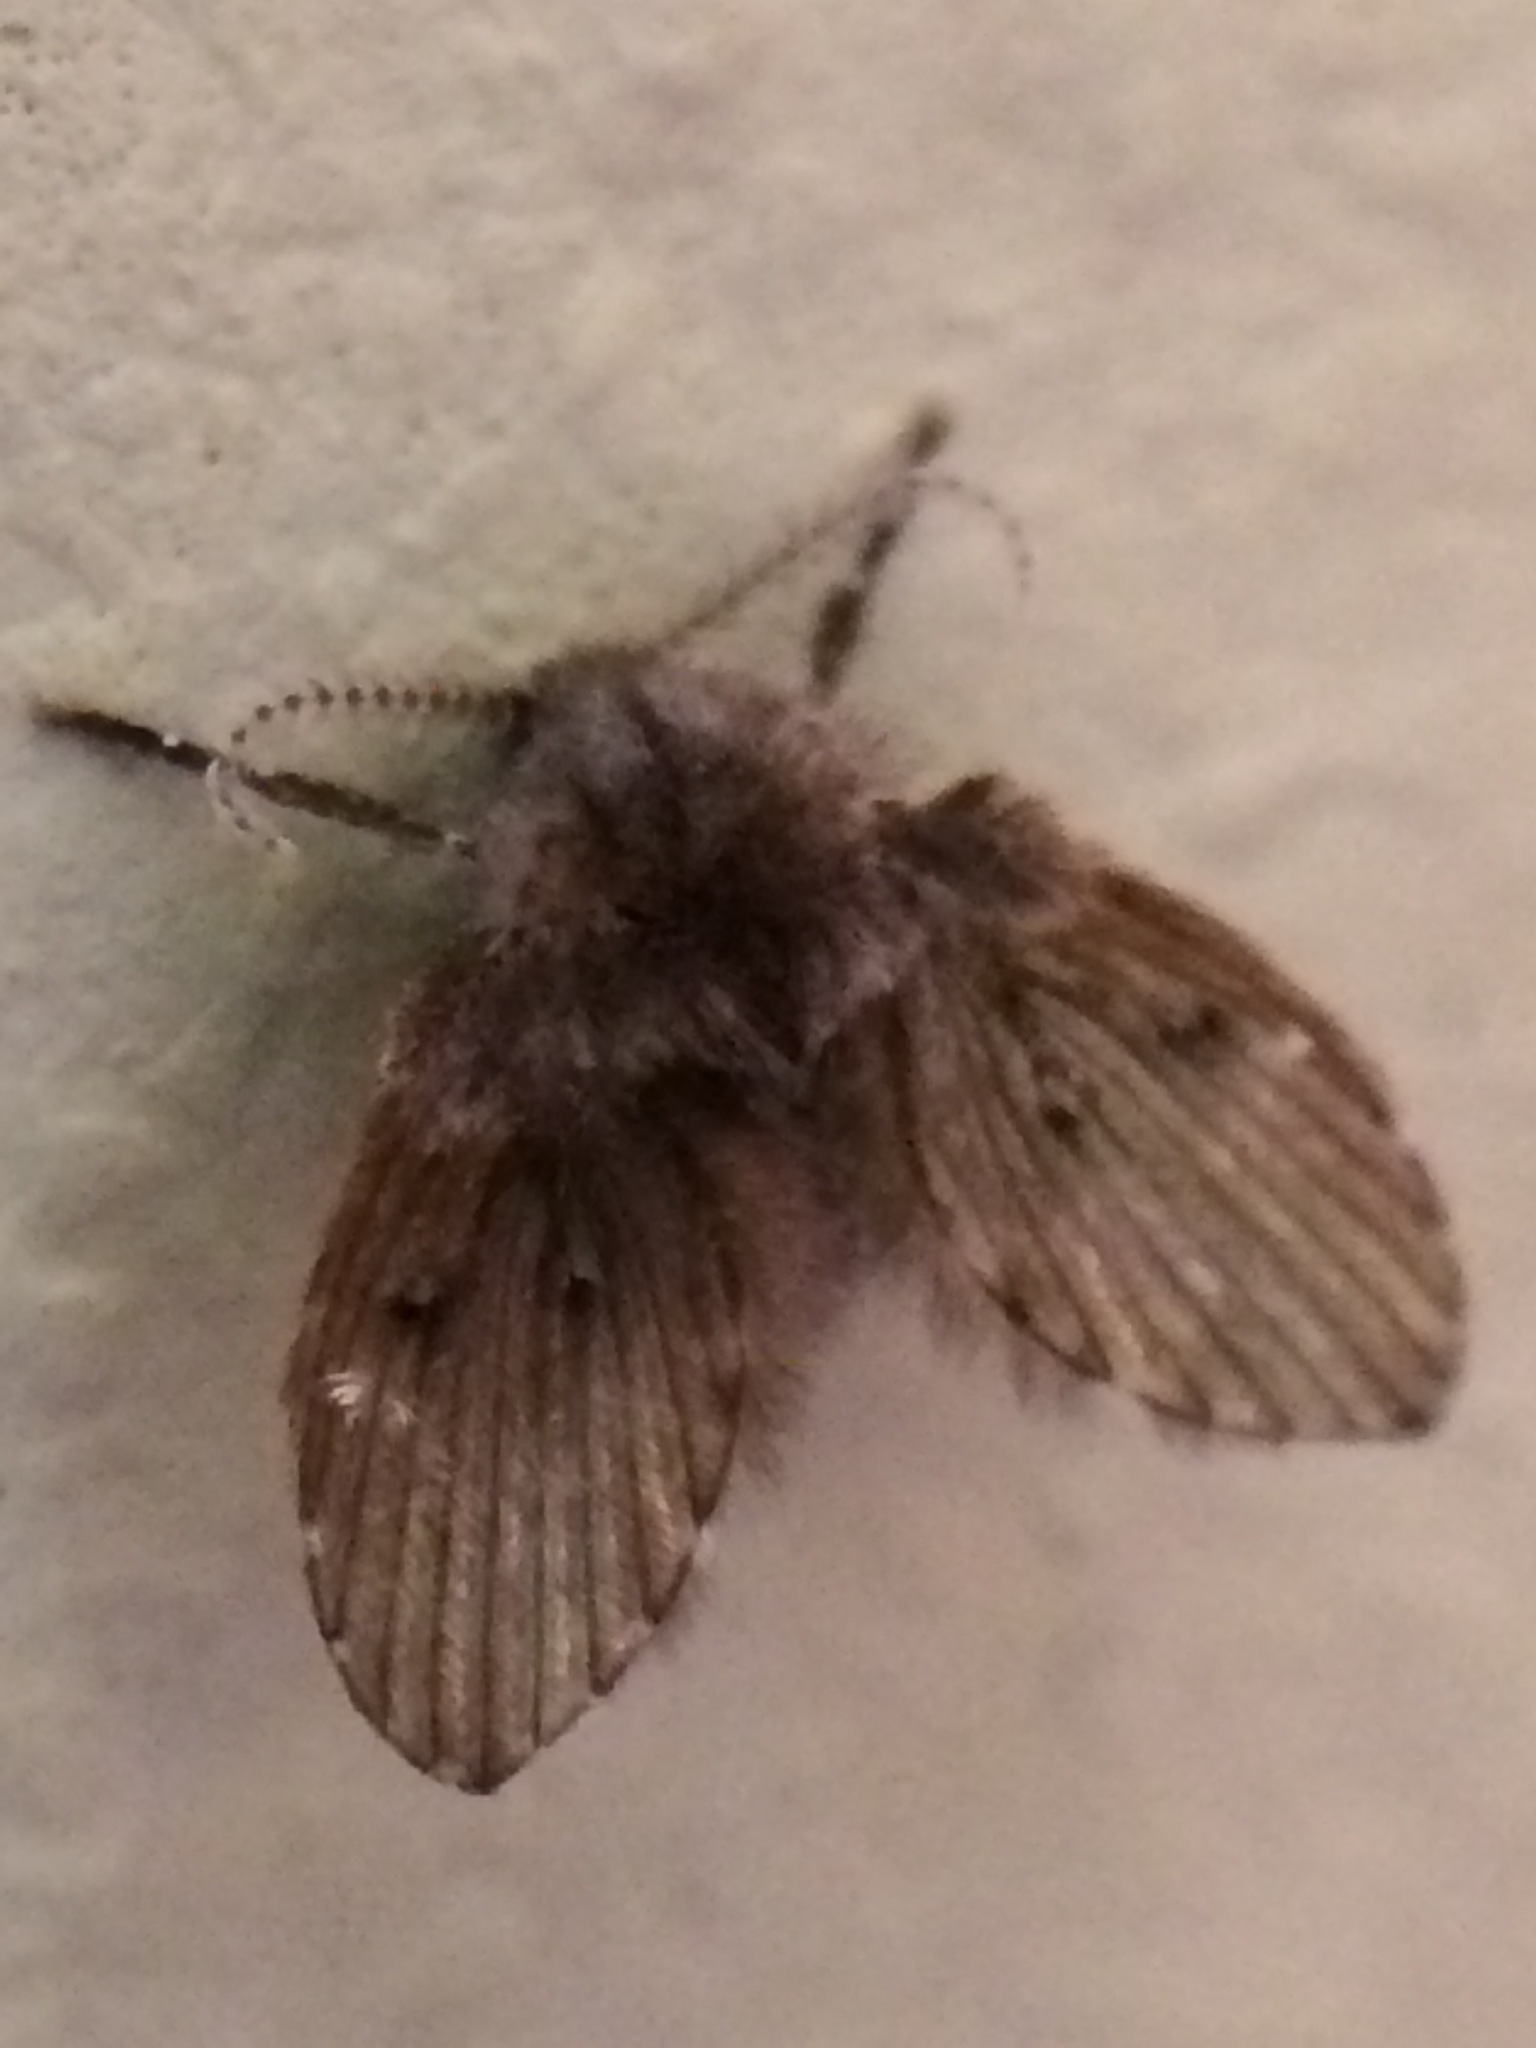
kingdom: Animalia
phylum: Arthropoda
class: Insecta
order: Diptera
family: Psychodidae
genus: Clogmia
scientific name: Clogmia albipunctatus
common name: White-spotted moth fly
